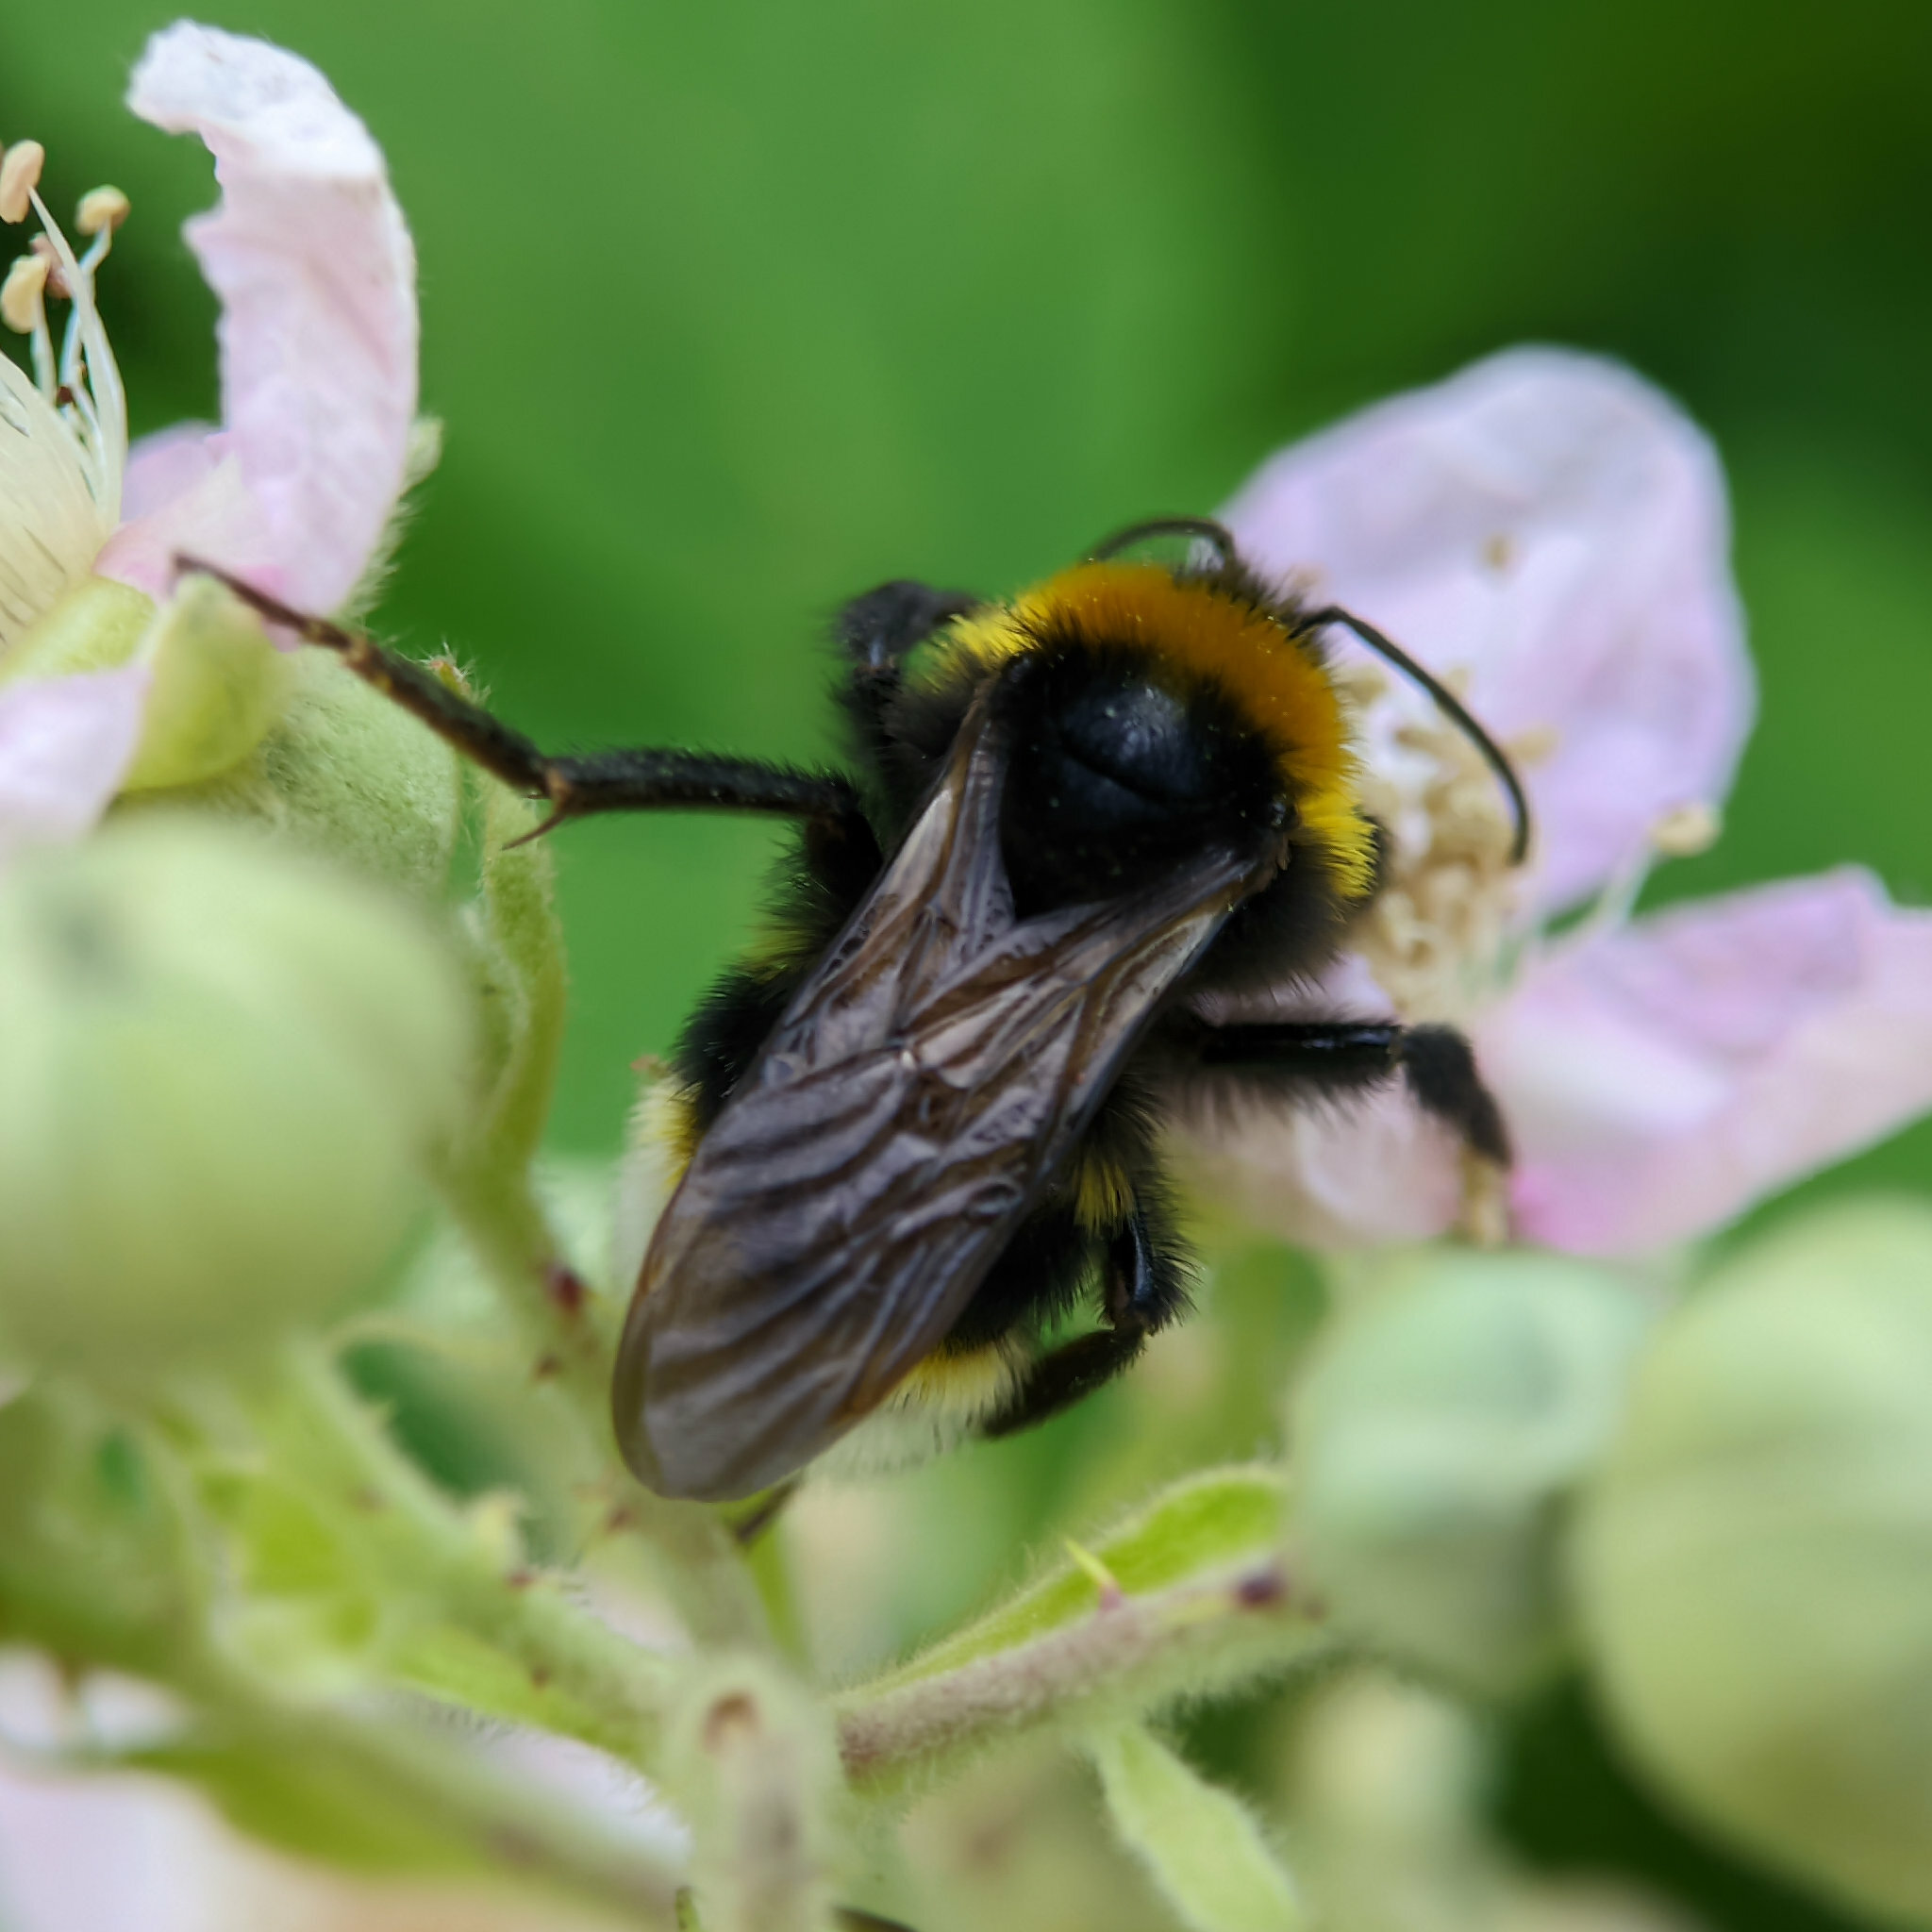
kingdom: Animalia
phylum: Arthropoda
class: Insecta
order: Hymenoptera
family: Apidae
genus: Bombus
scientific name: Bombus vestalis
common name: Vestal cuckoo bee
